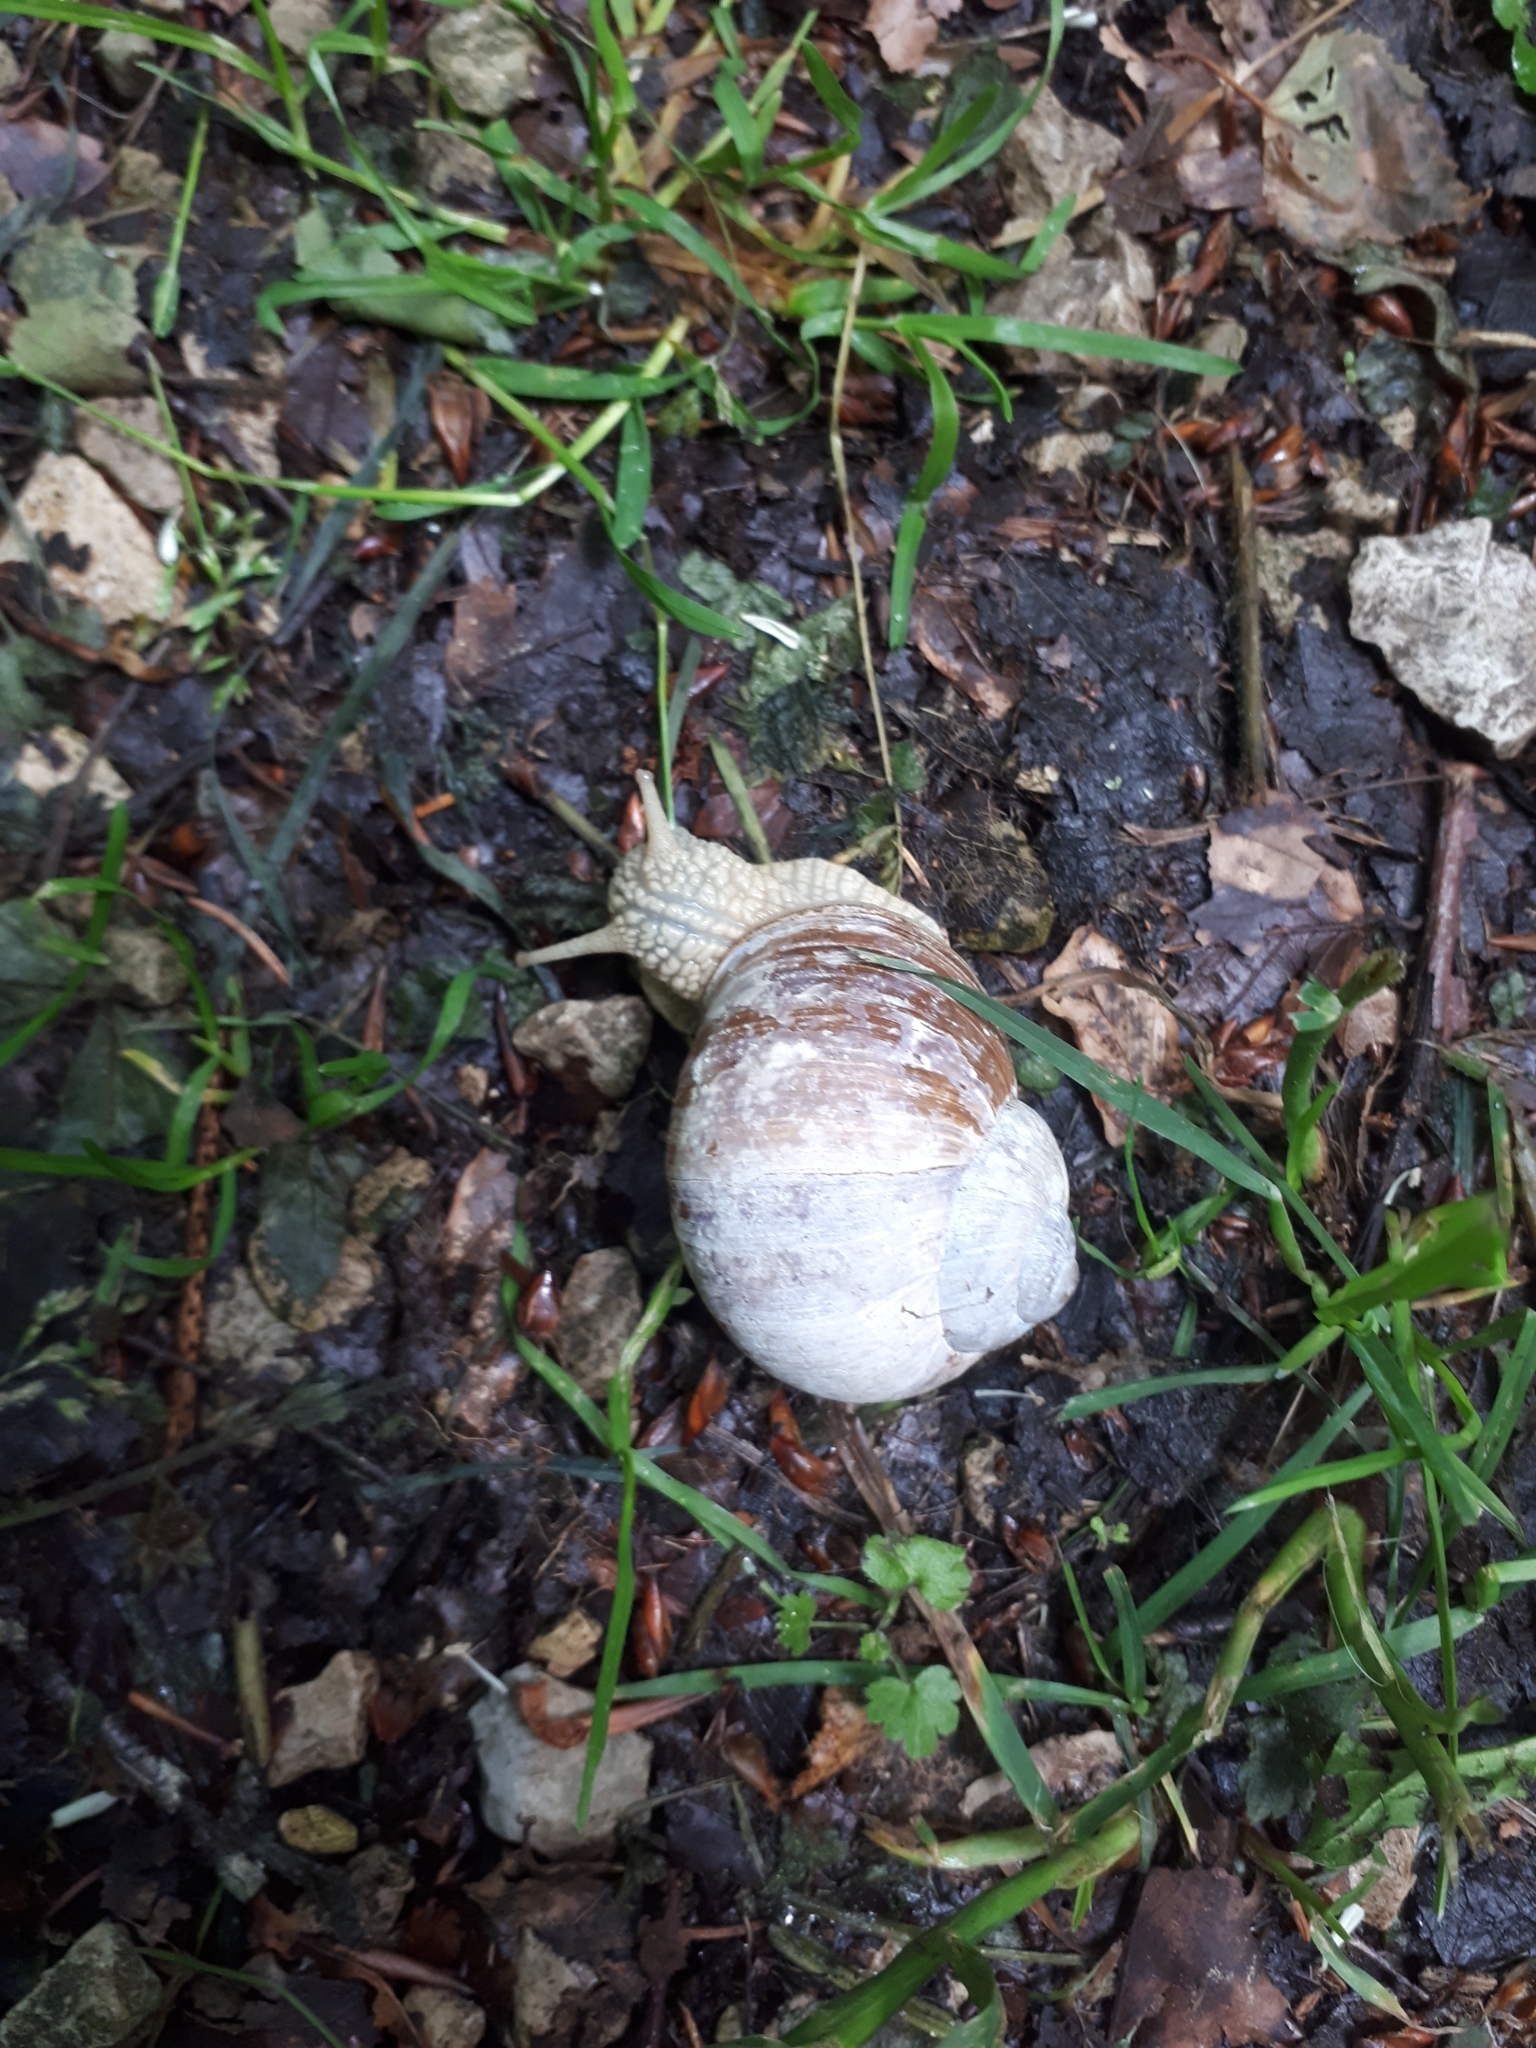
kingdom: Animalia
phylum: Mollusca
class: Gastropoda
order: Stylommatophora
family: Helicidae
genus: Helix
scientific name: Helix pomatia
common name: Roman snail
